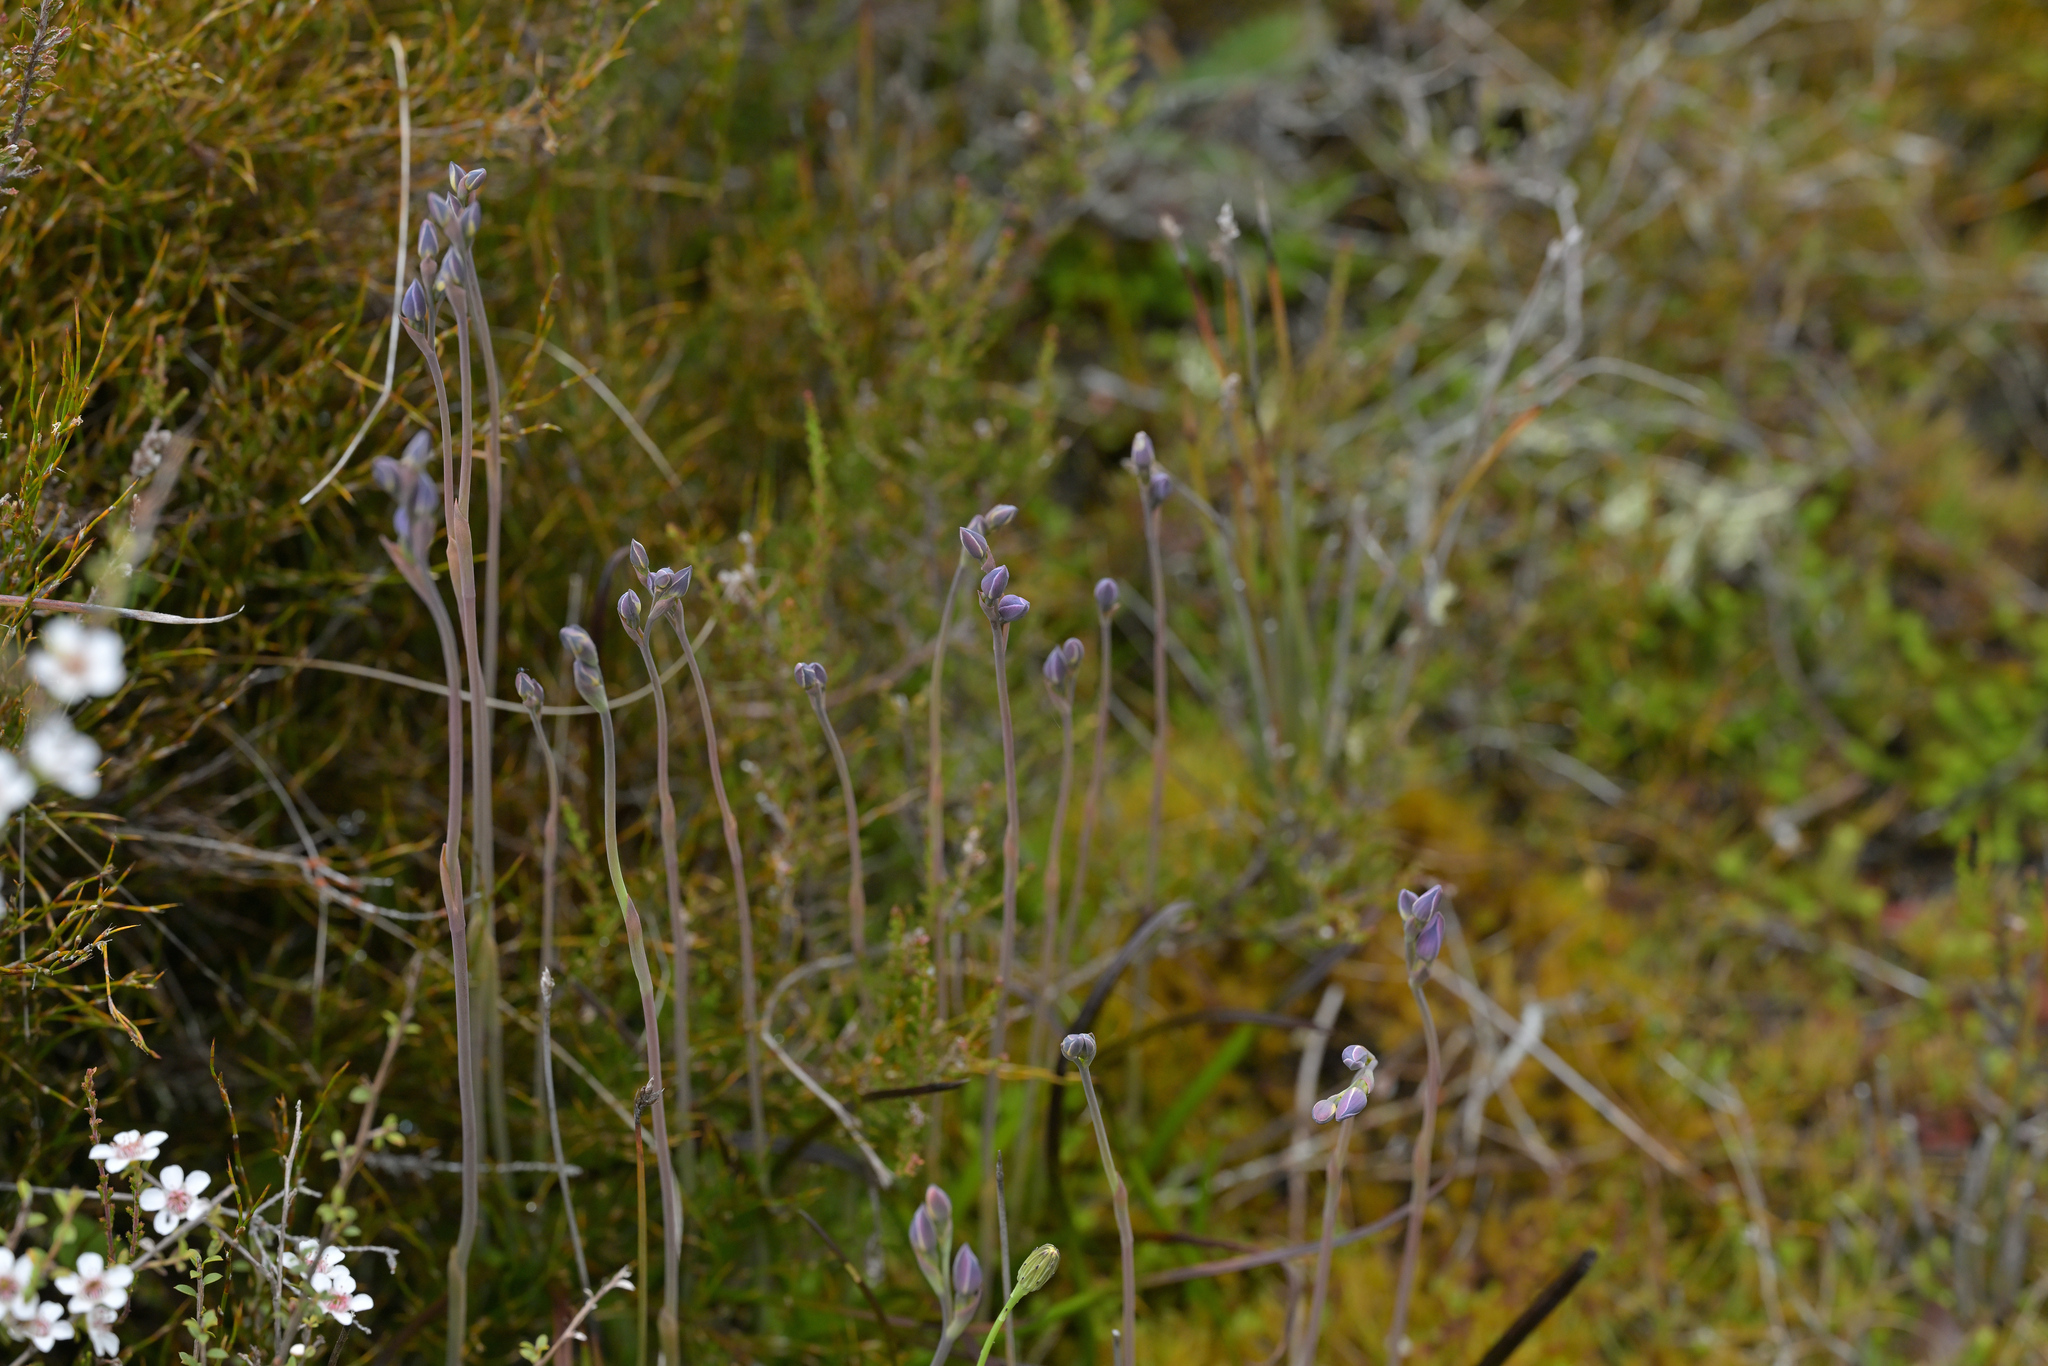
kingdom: Plantae
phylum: Tracheophyta
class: Liliopsida
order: Asparagales
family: Orchidaceae
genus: Thelymitra
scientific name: Thelymitra cyanea
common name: Blue sun-orchid
